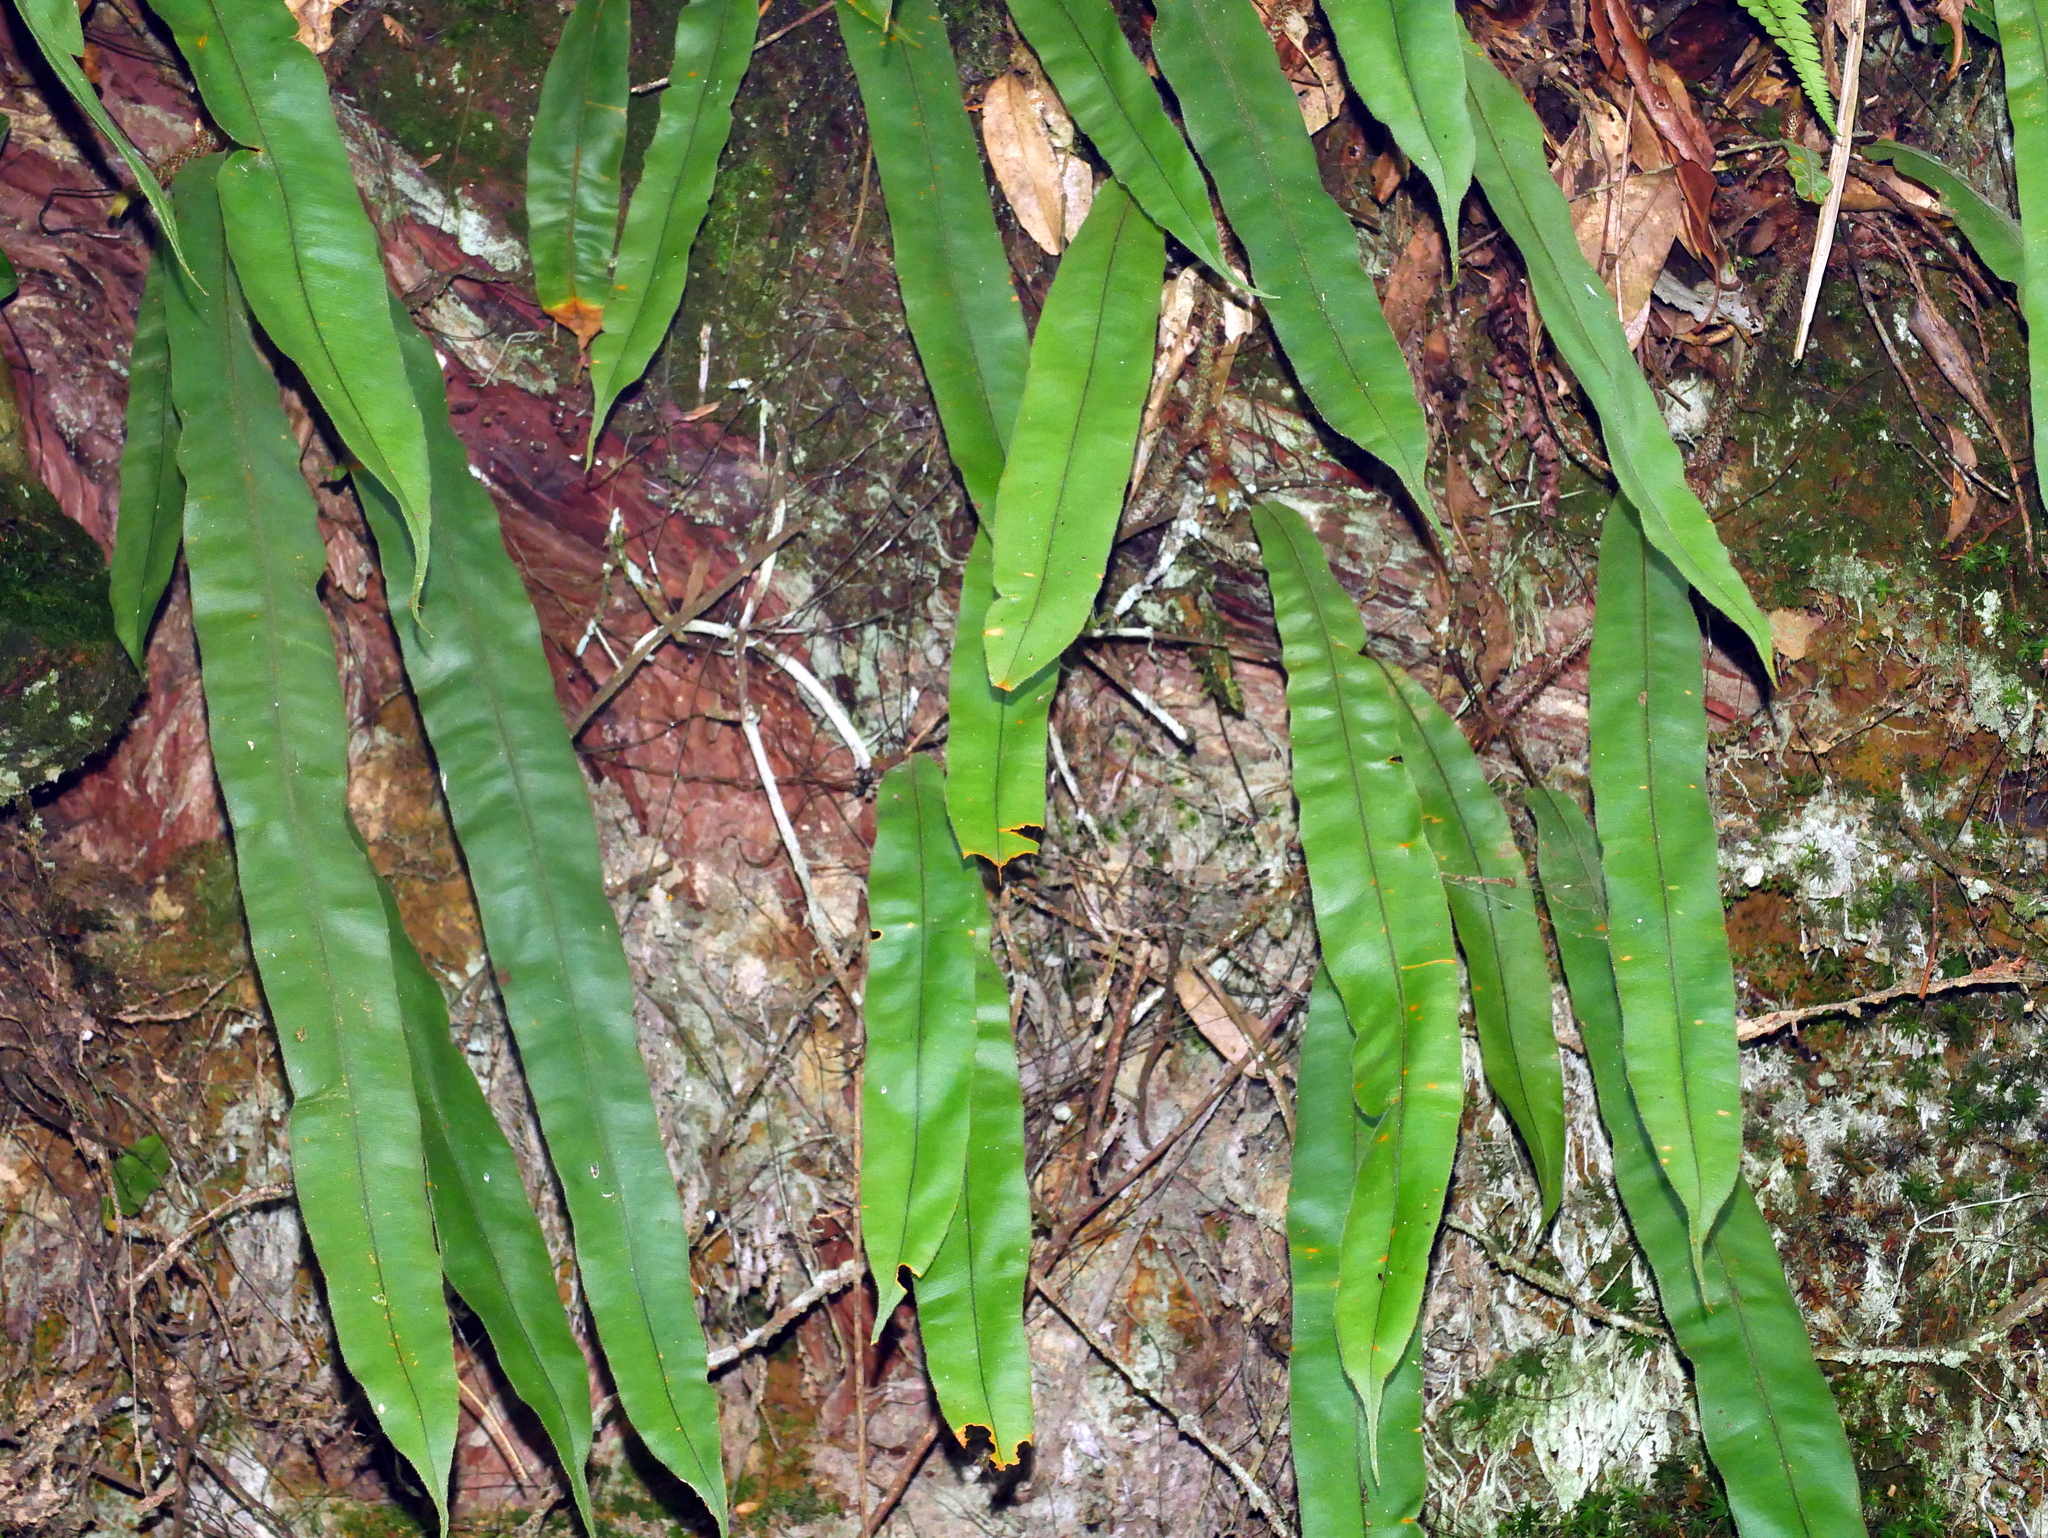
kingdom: Plantae
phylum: Tracheophyta
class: Polypodiopsida
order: Polypodiales
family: Oleandraceae
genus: Oleandra
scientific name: Oleandra wallichii
